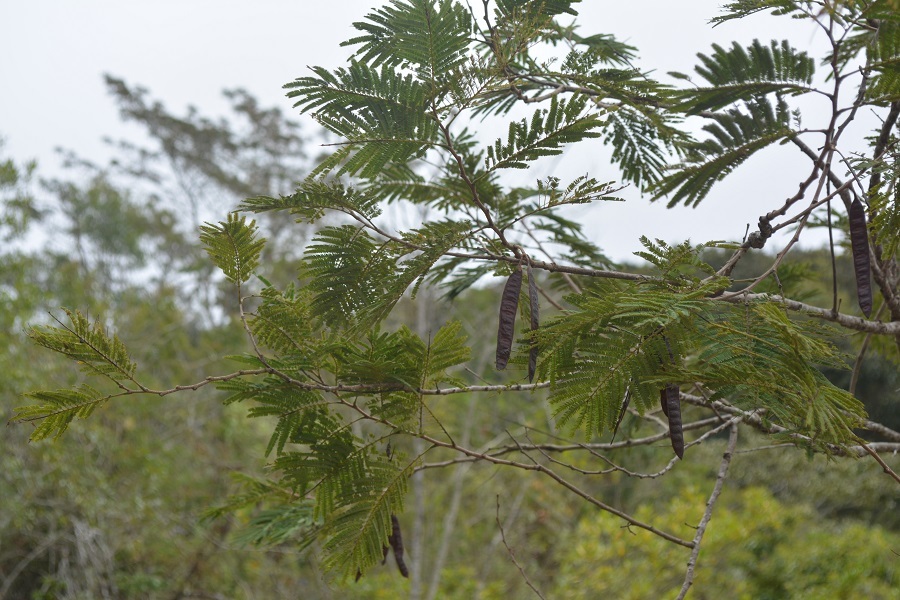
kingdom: Plantae
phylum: Tracheophyta
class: Magnoliopsida
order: Fabales
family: Fabaceae
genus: Leucaena
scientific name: Leucaena diversifolia
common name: Red leucaena
